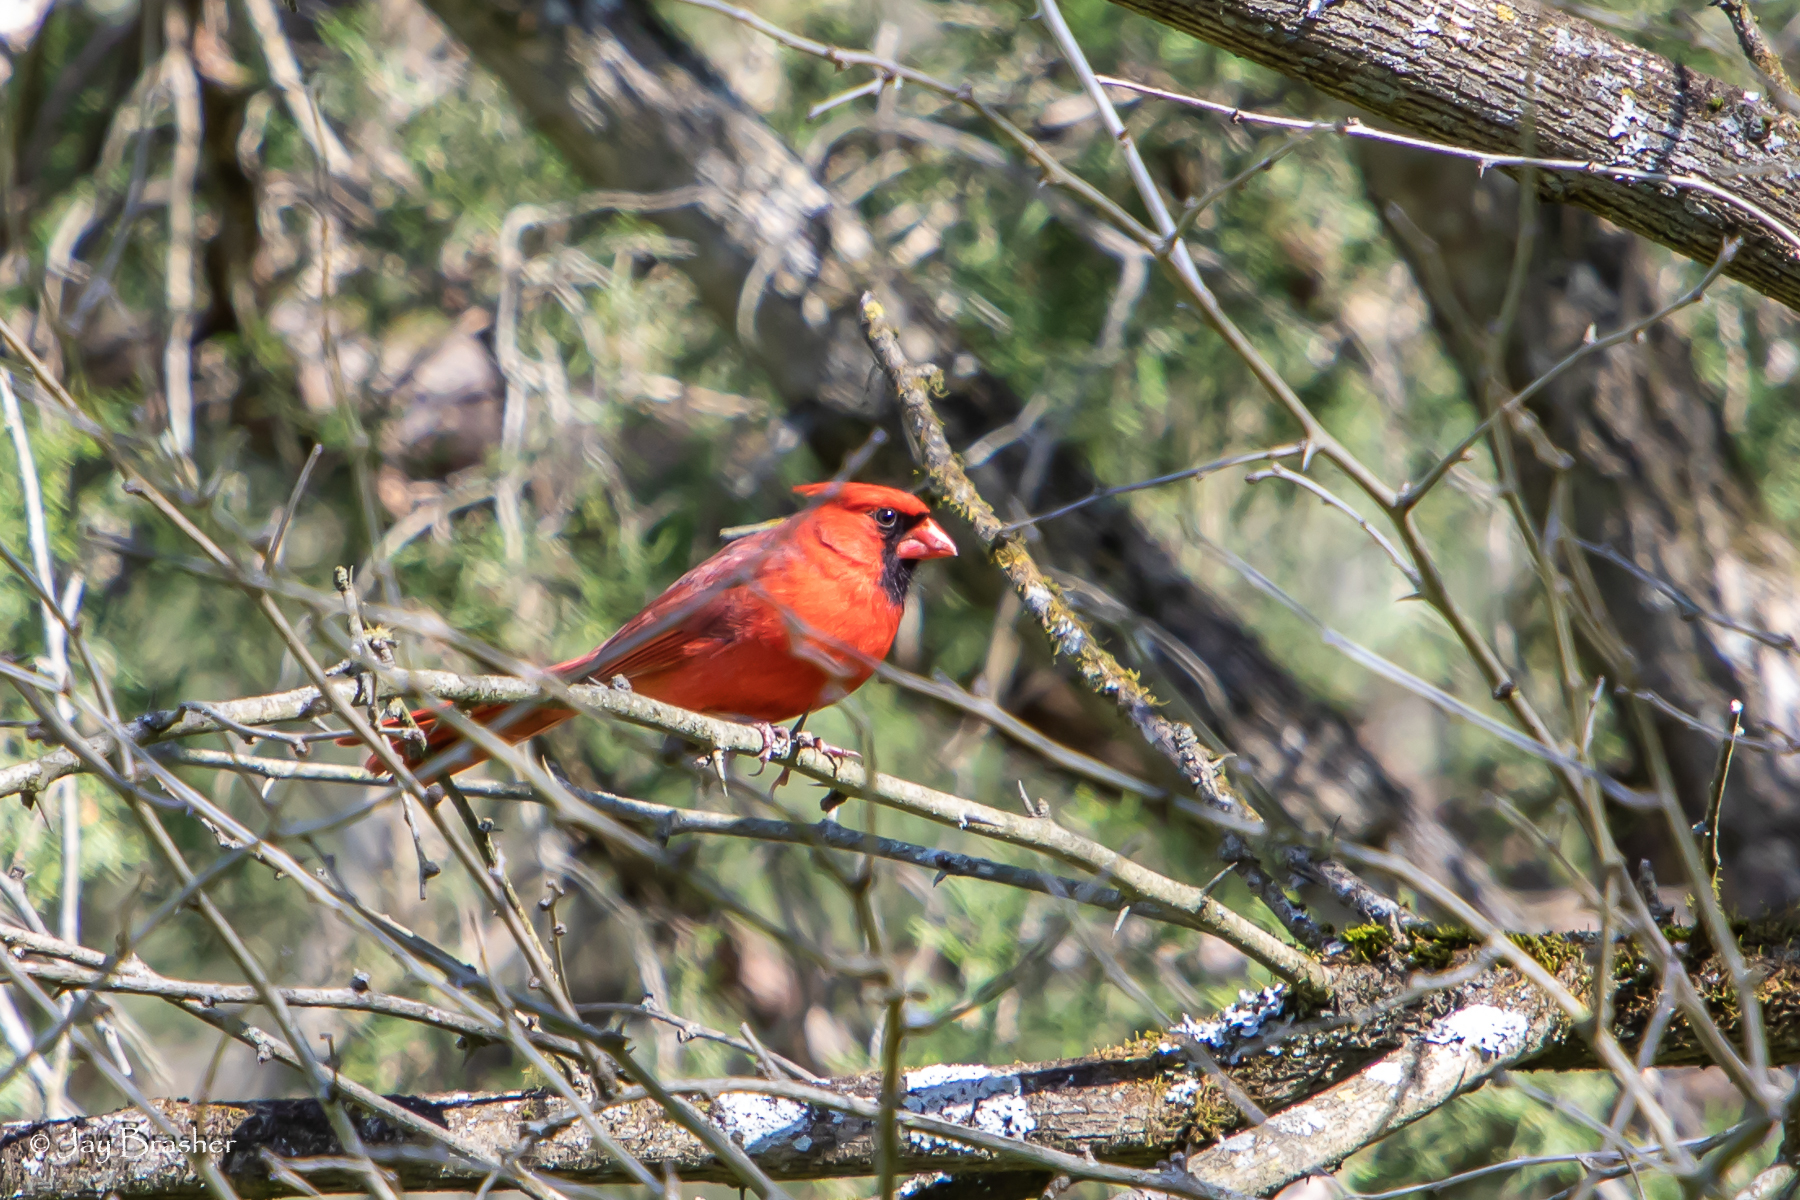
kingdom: Animalia
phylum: Chordata
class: Aves
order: Passeriformes
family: Cardinalidae
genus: Cardinalis
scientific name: Cardinalis cardinalis
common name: Northern cardinal
